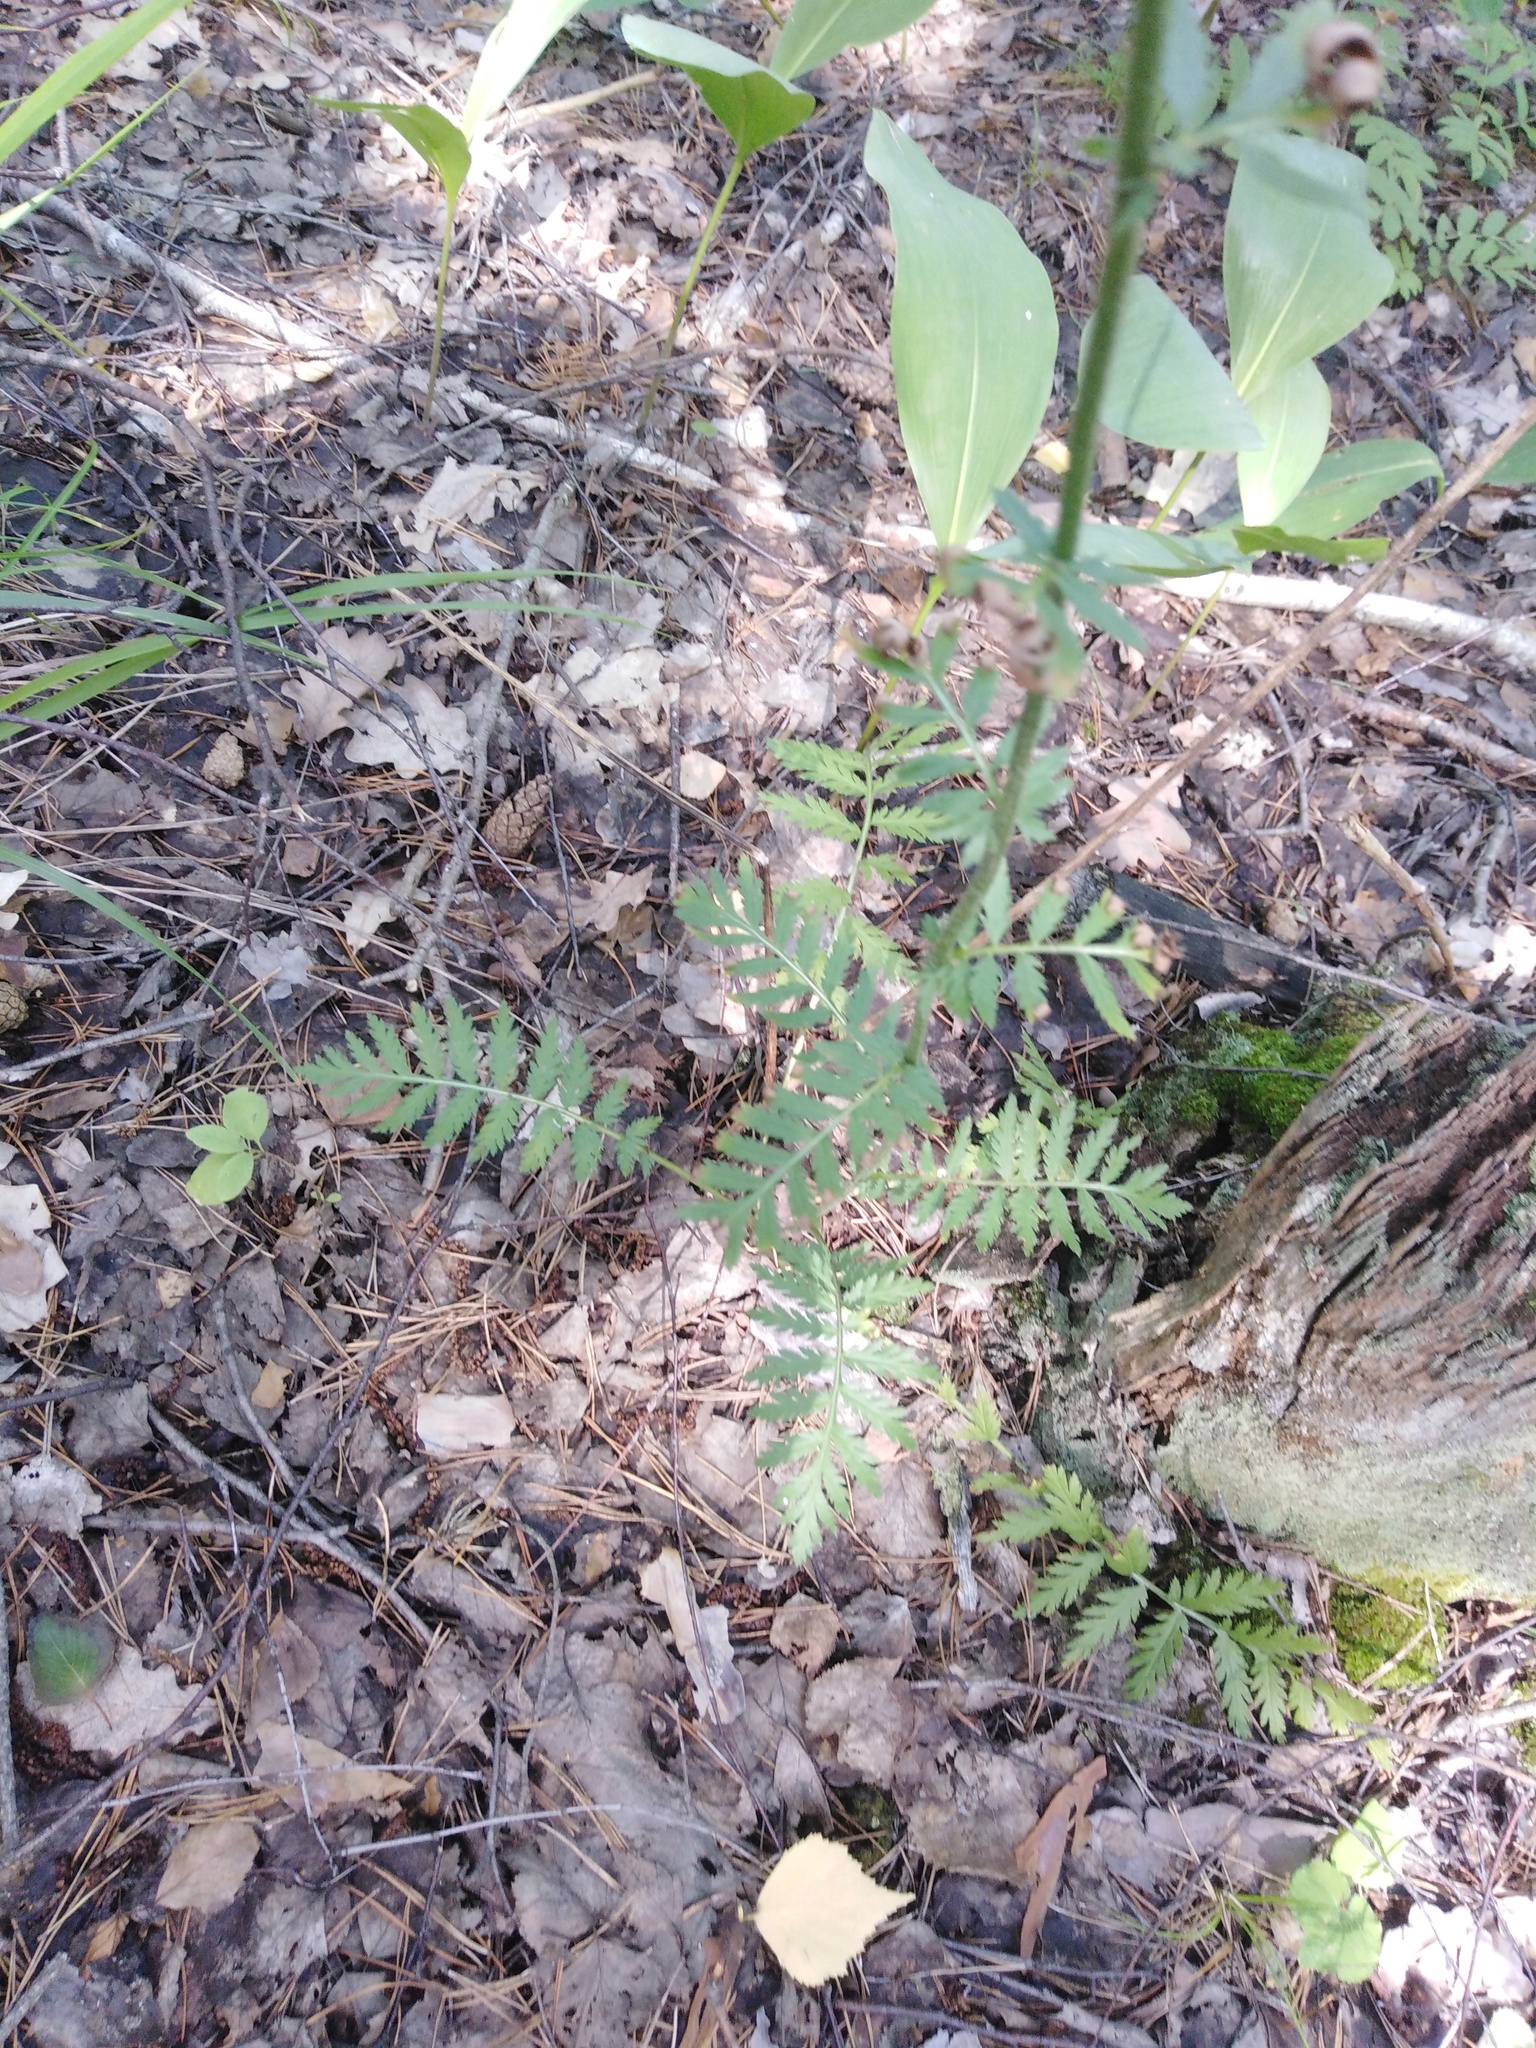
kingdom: Plantae
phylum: Tracheophyta
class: Magnoliopsida
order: Asterales
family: Asteraceae
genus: Tanacetum
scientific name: Tanacetum corymbosum
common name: Scentless feverfew
